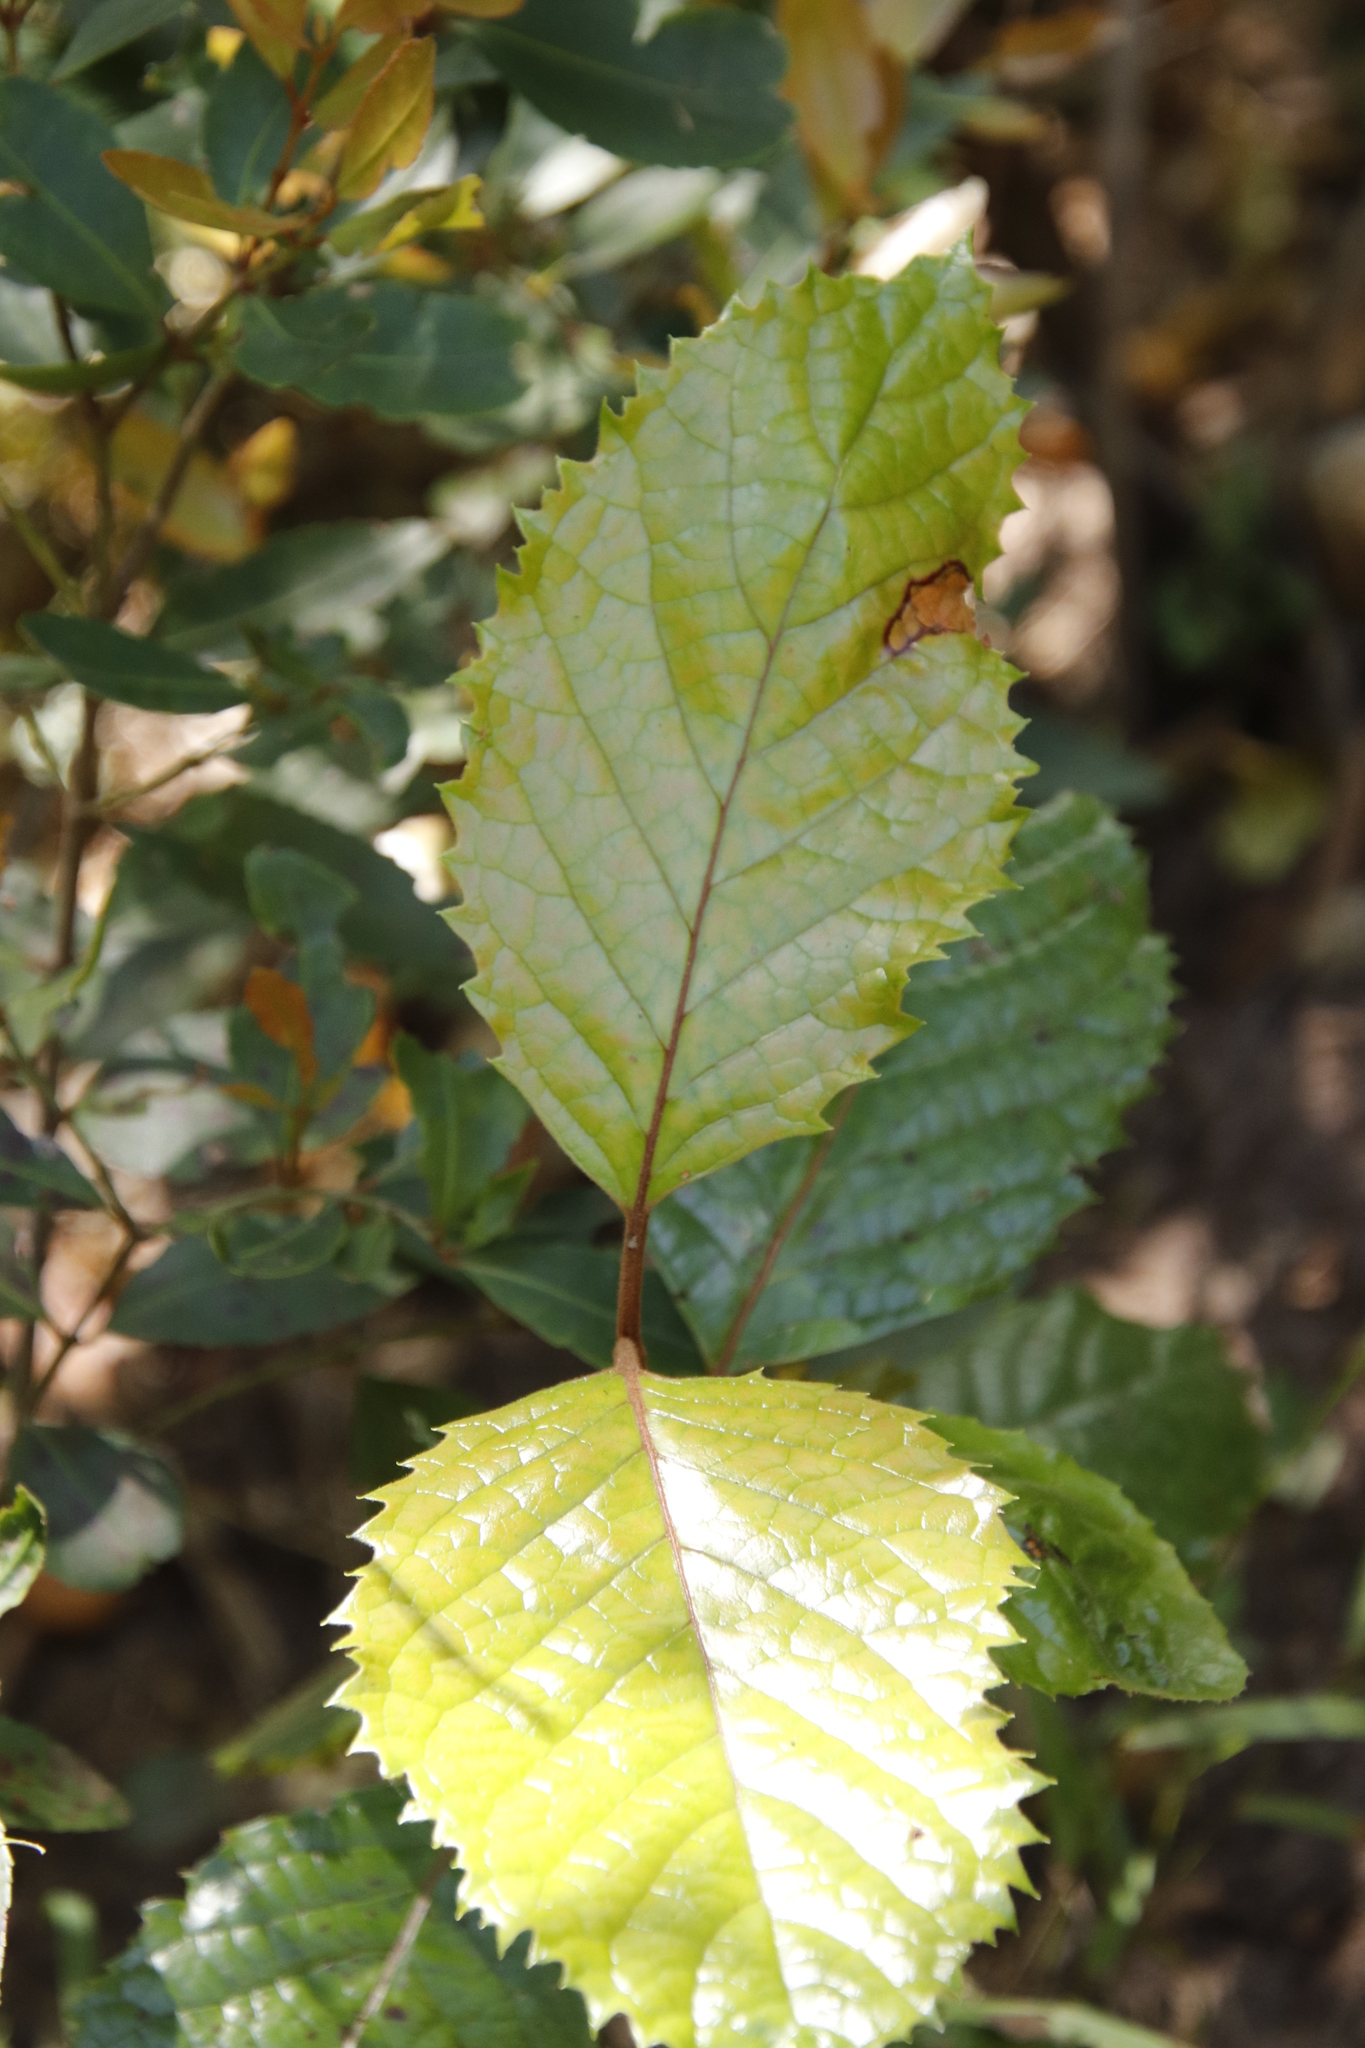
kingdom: Plantae
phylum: Tracheophyta
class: Magnoliopsida
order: Cornales
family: Curtisiaceae
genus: Curtisia
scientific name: Curtisia dentata
